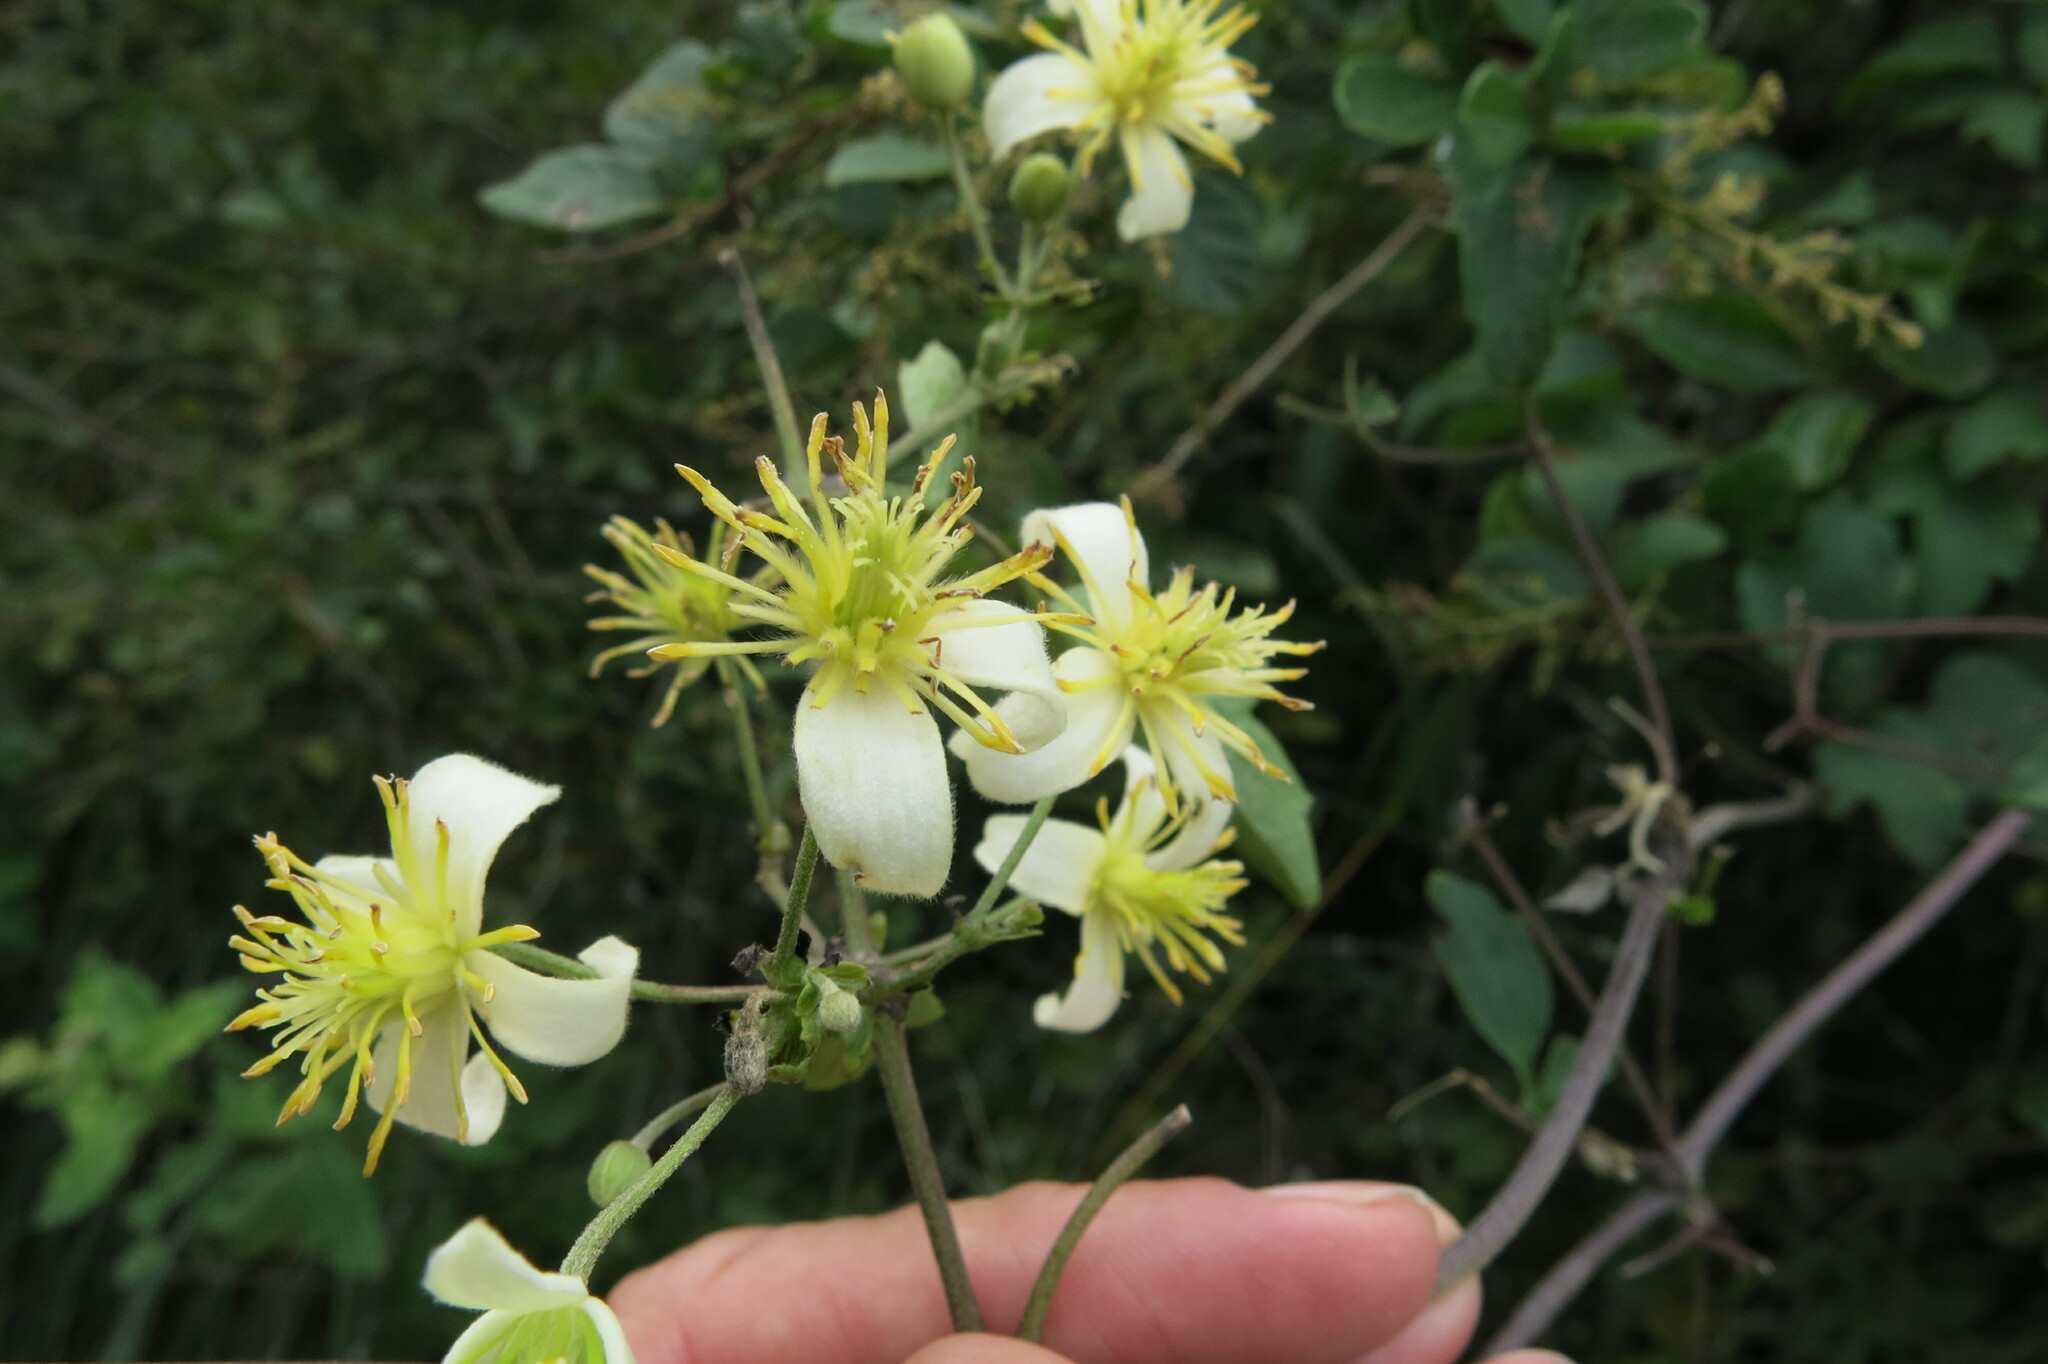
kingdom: Plantae
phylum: Tracheophyta
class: Magnoliopsida
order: Ranunculales
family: Ranunculaceae
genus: Clematis
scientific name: Clematis brachiata
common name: Traveler's-joy
